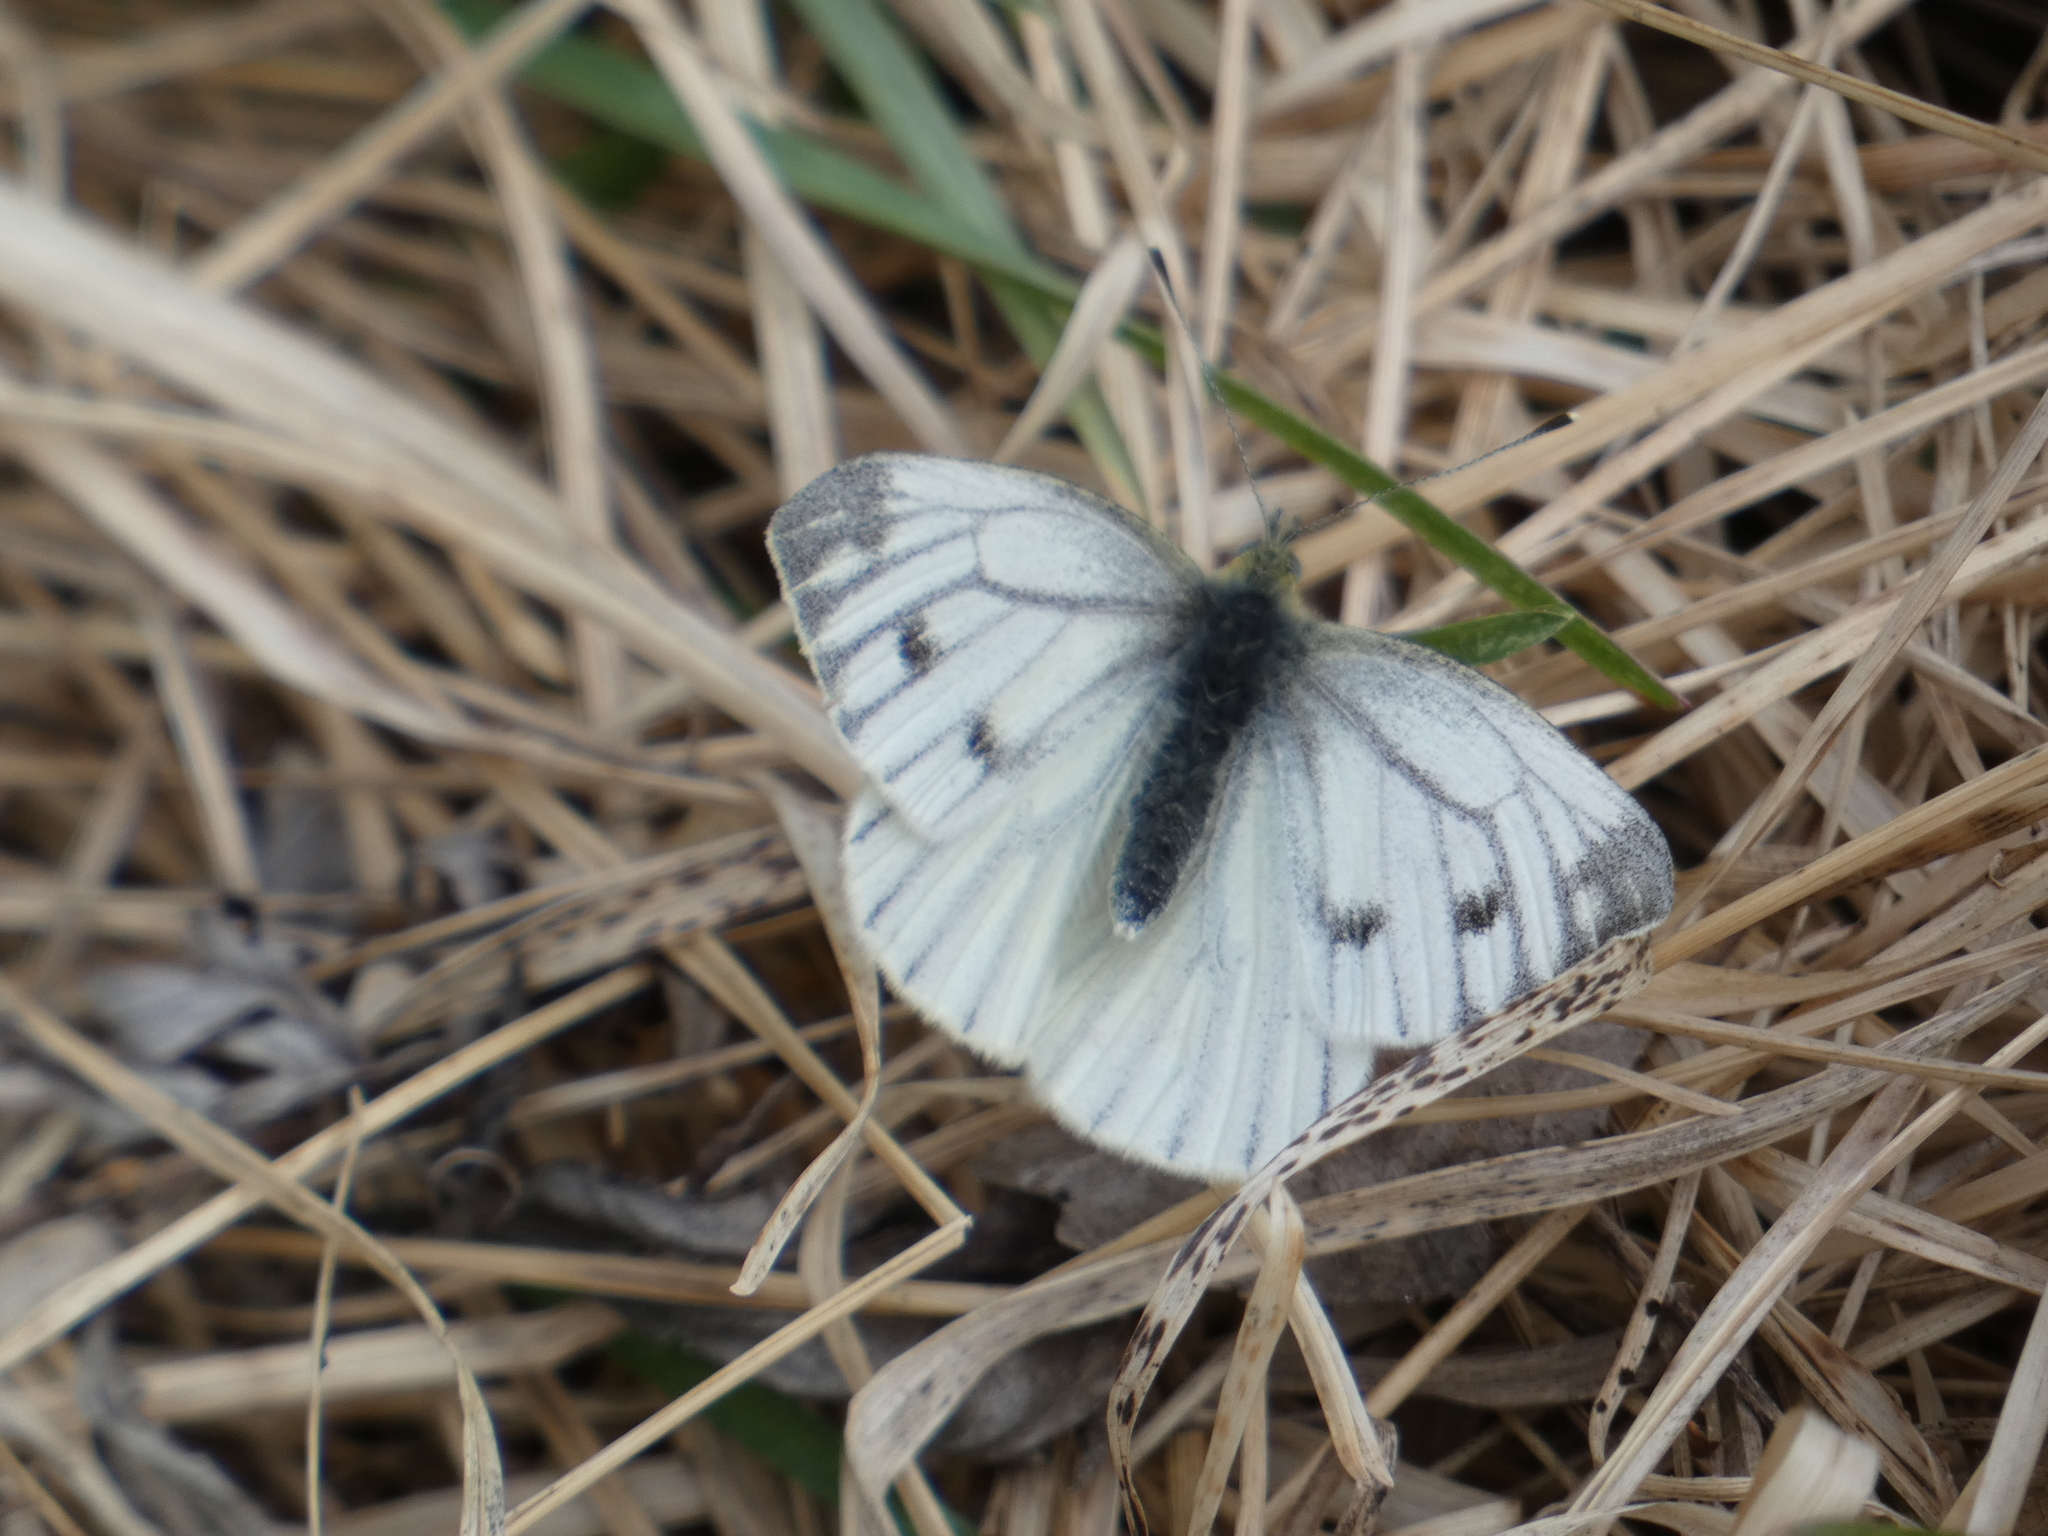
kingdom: Animalia
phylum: Arthropoda
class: Insecta
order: Lepidoptera
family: Pieridae
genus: Pieris
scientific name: Pieris napi
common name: Green-veined white
